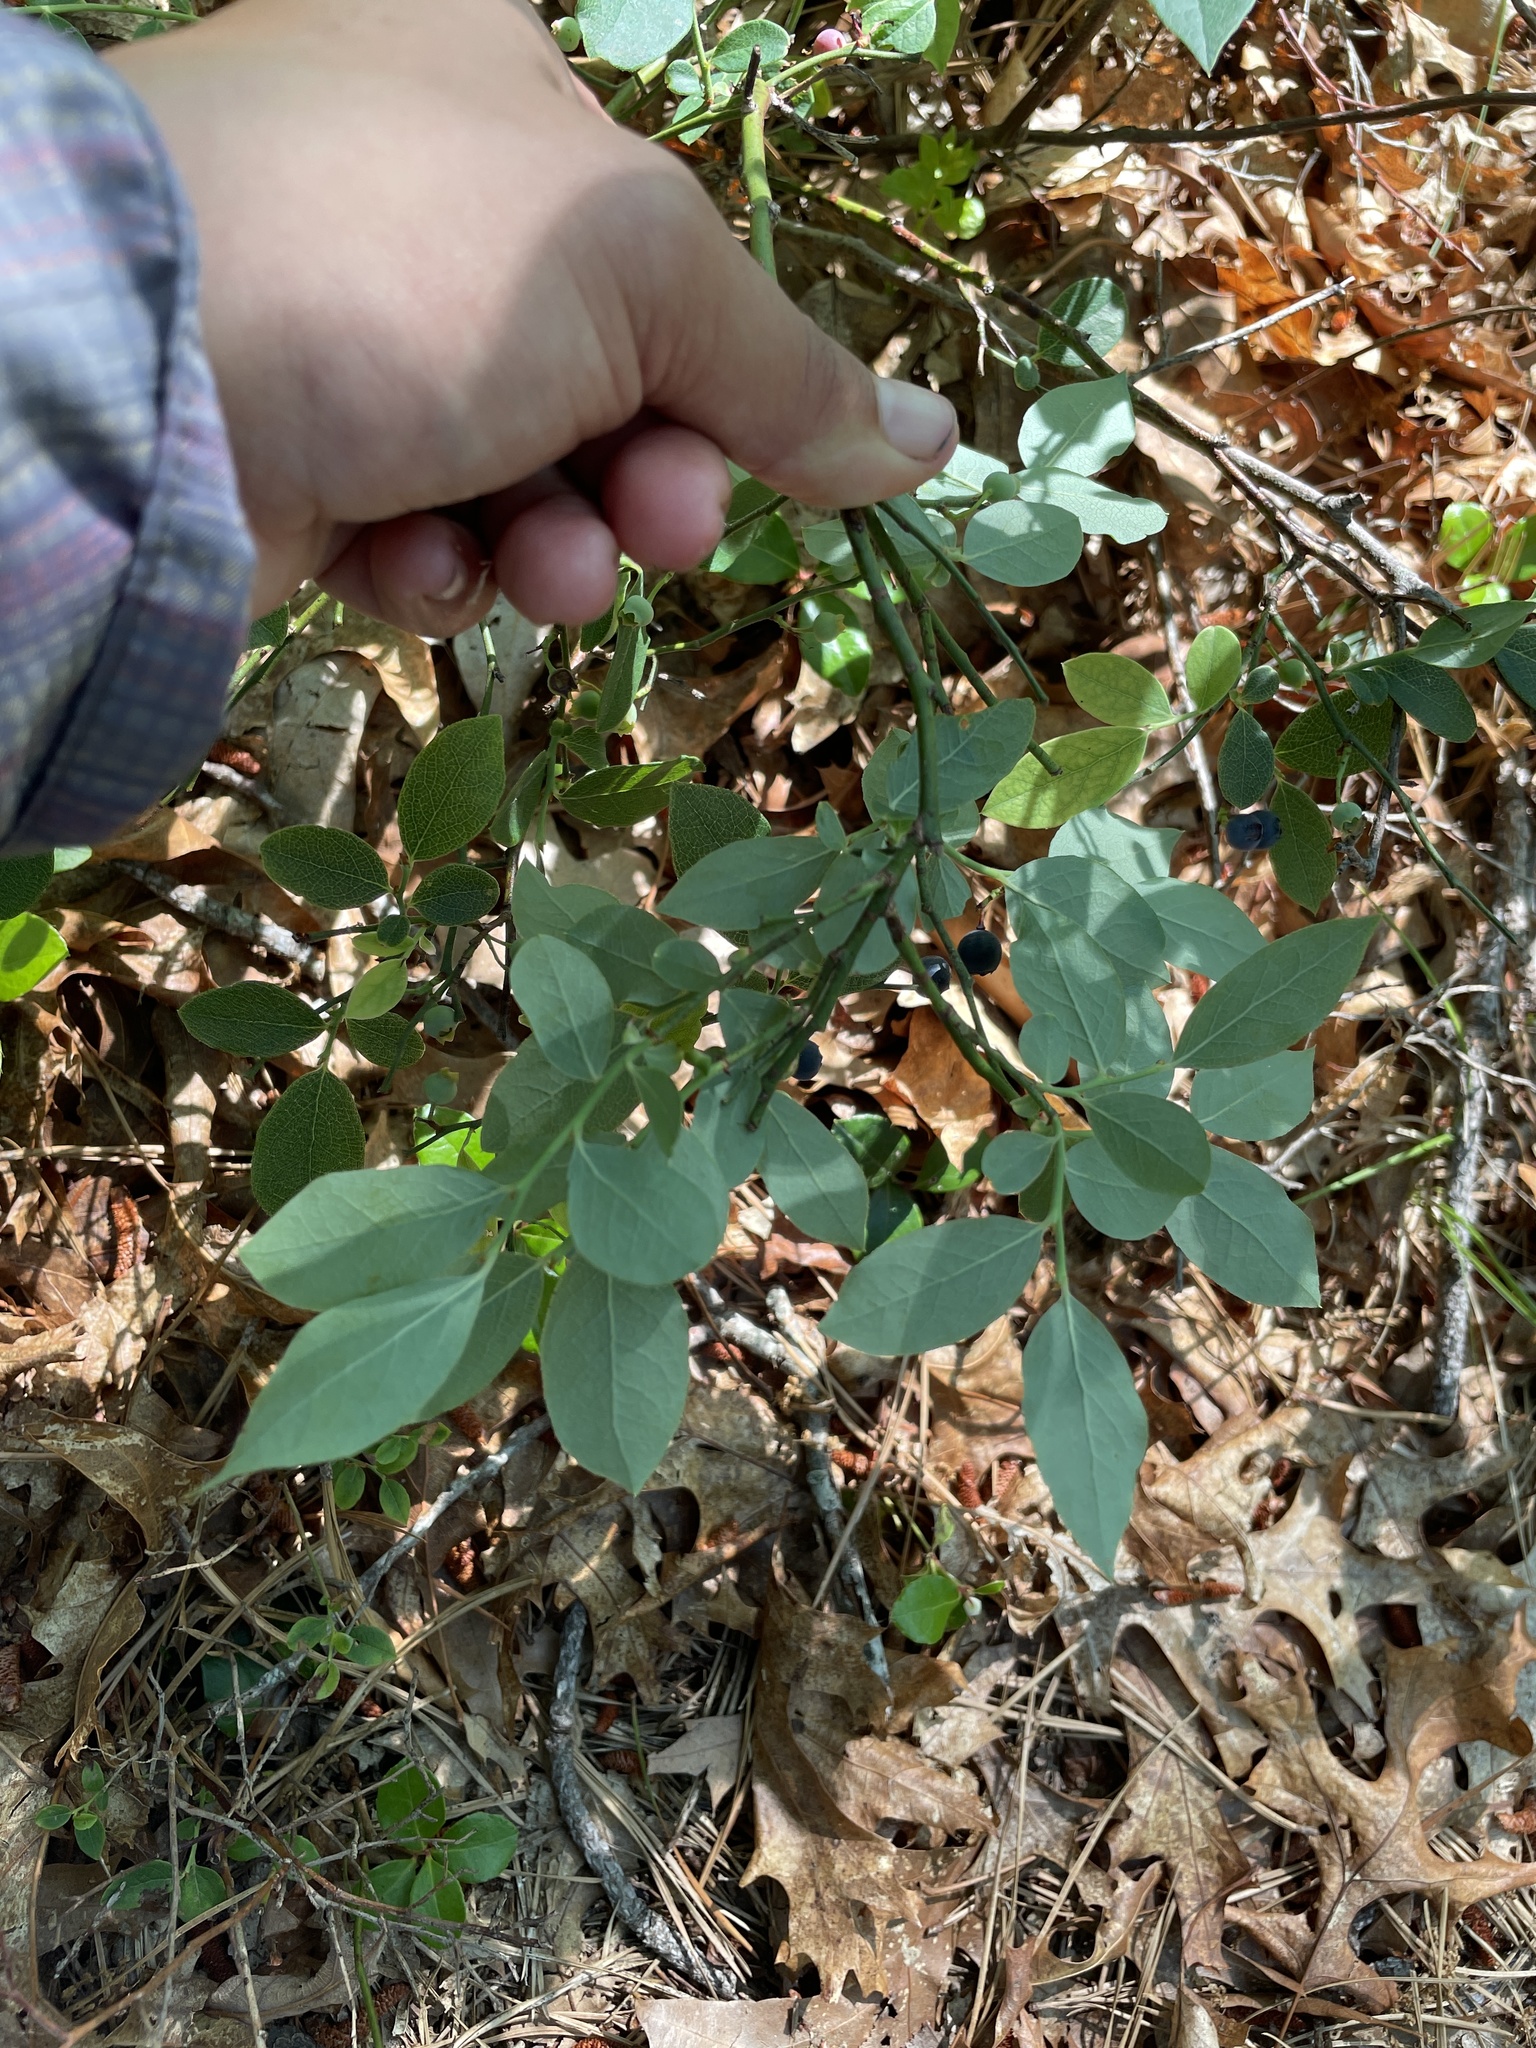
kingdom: Plantae
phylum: Tracheophyta
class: Magnoliopsida
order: Ericales
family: Ericaceae
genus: Vaccinium
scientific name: Vaccinium pallidum
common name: Blue ridge blueberry
